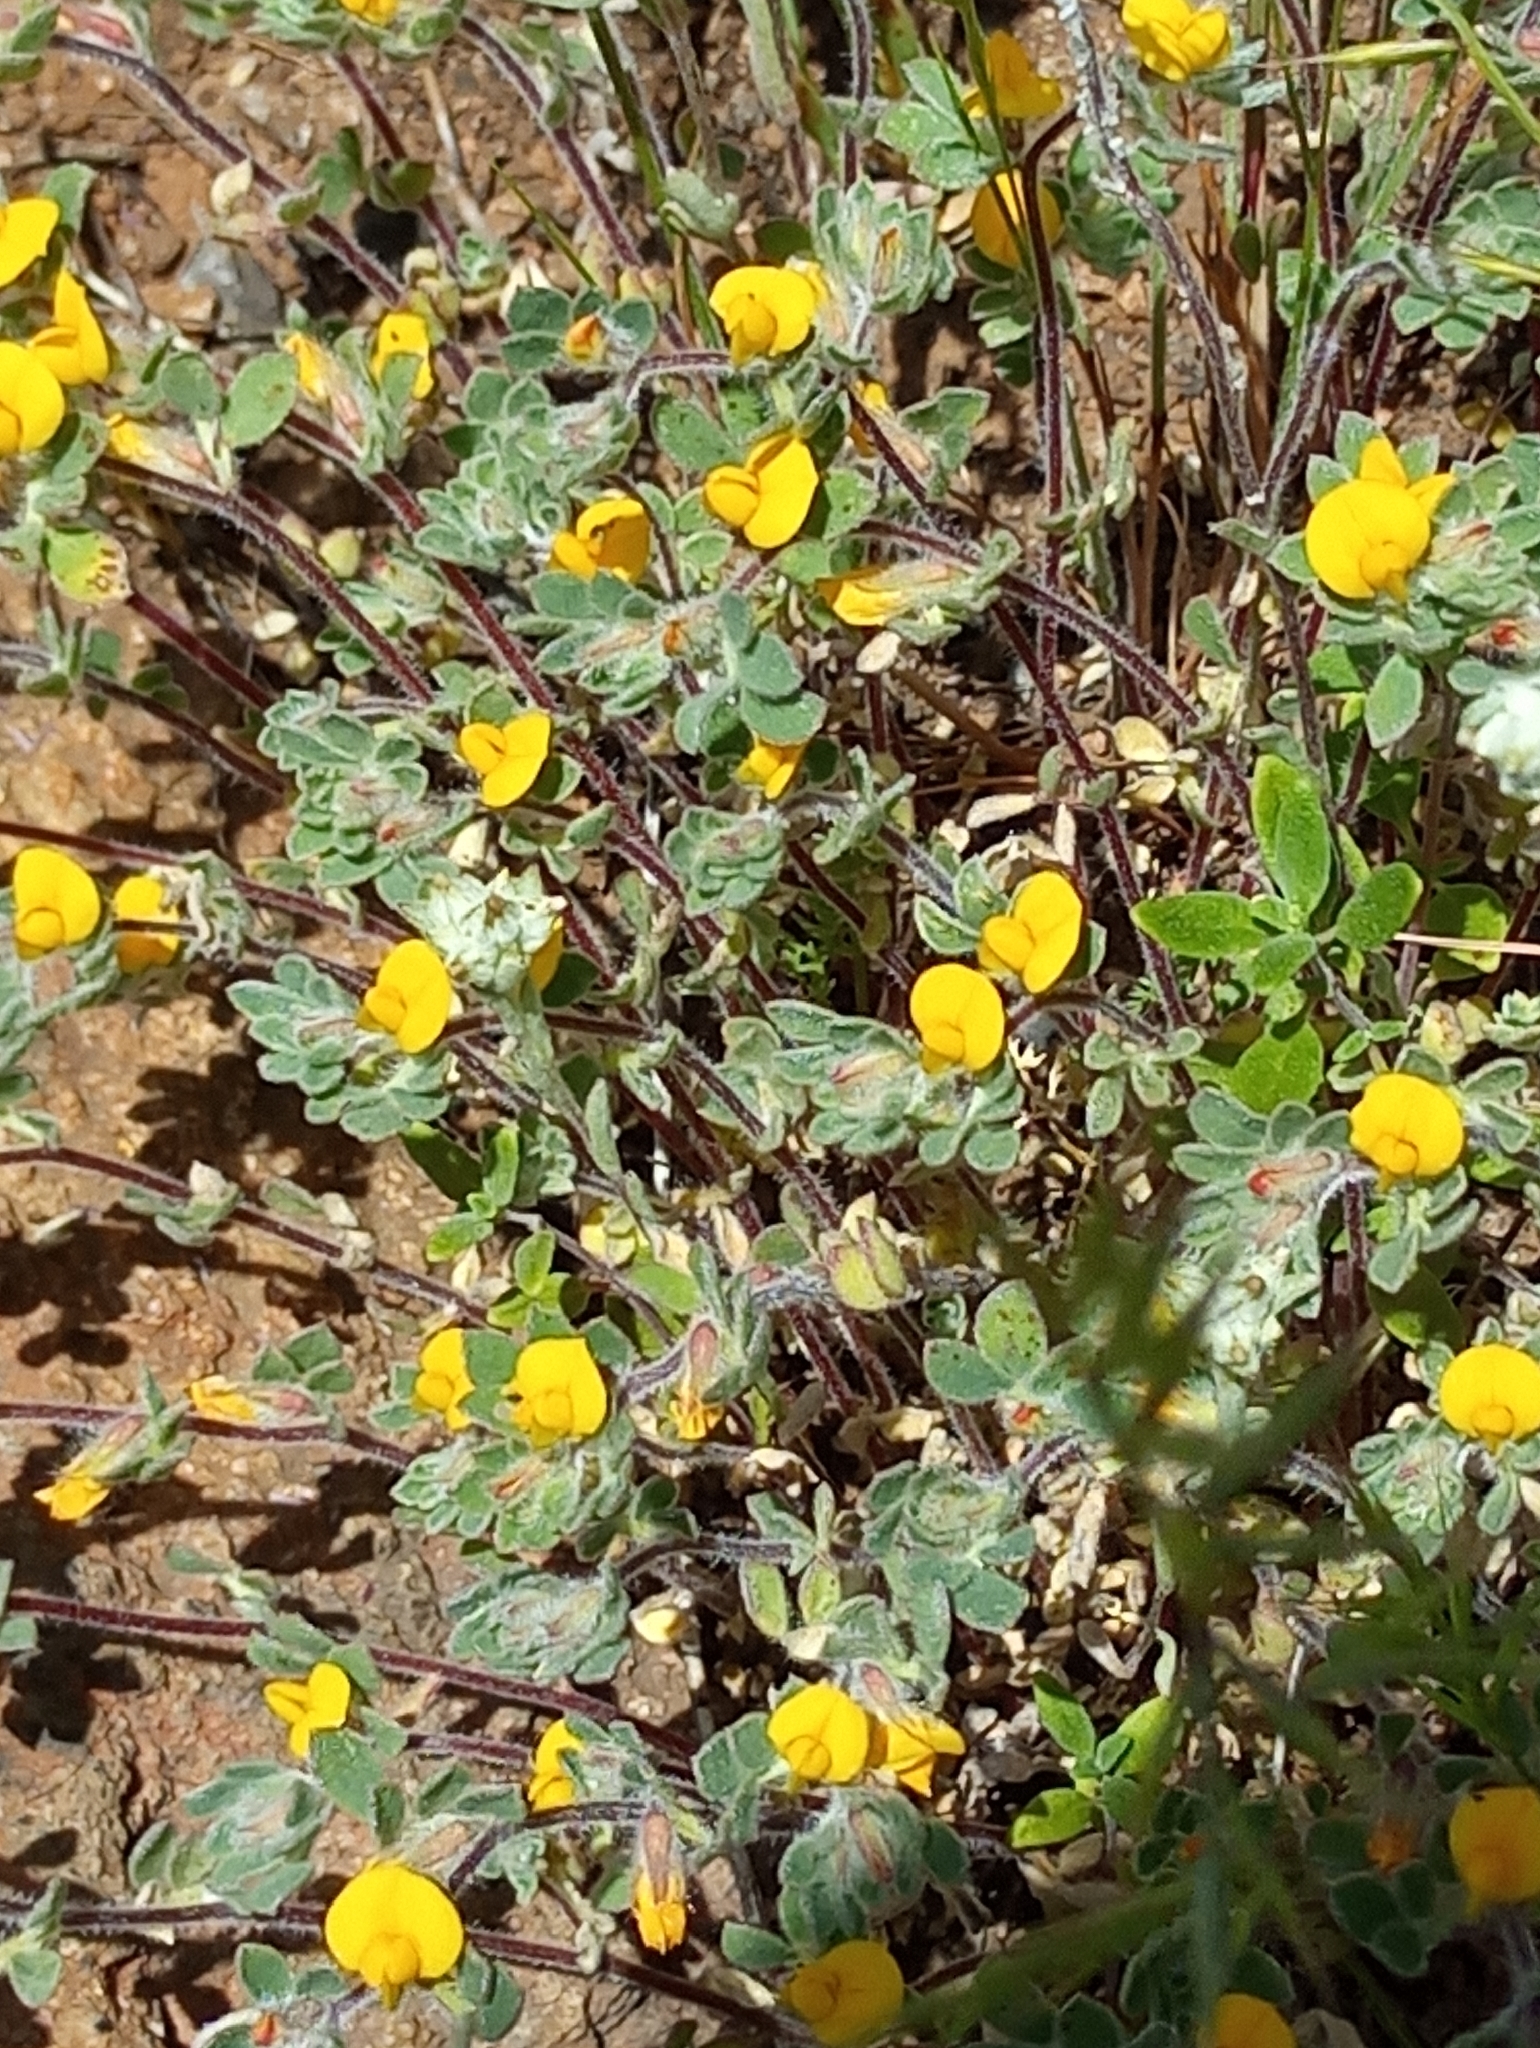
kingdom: Plantae
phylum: Tracheophyta
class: Magnoliopsida
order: Fabales
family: Fabaceae
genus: Acmispon
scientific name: Acmispon brachycarpus
